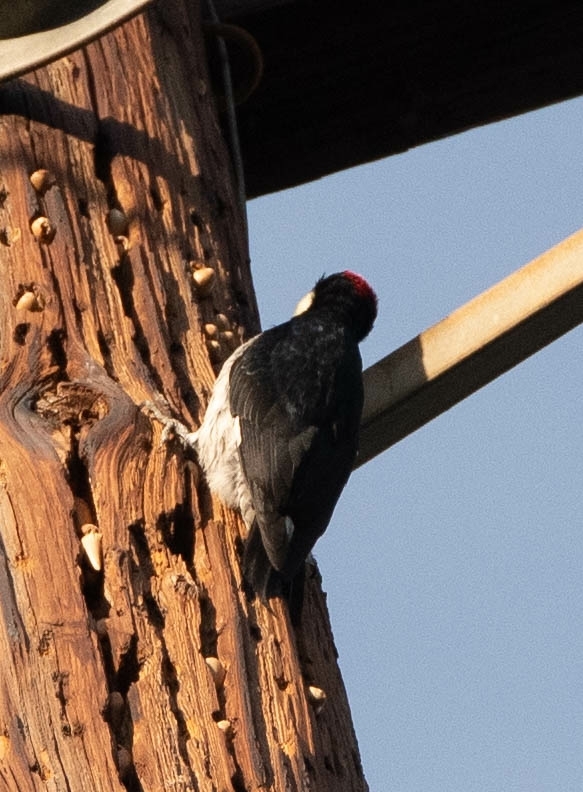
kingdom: Animalia
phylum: Chordata
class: Aves
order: Piciformes
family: Picidae
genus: Melanerpes
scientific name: Melanerpes formicivorus
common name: Acorn woodpecker
